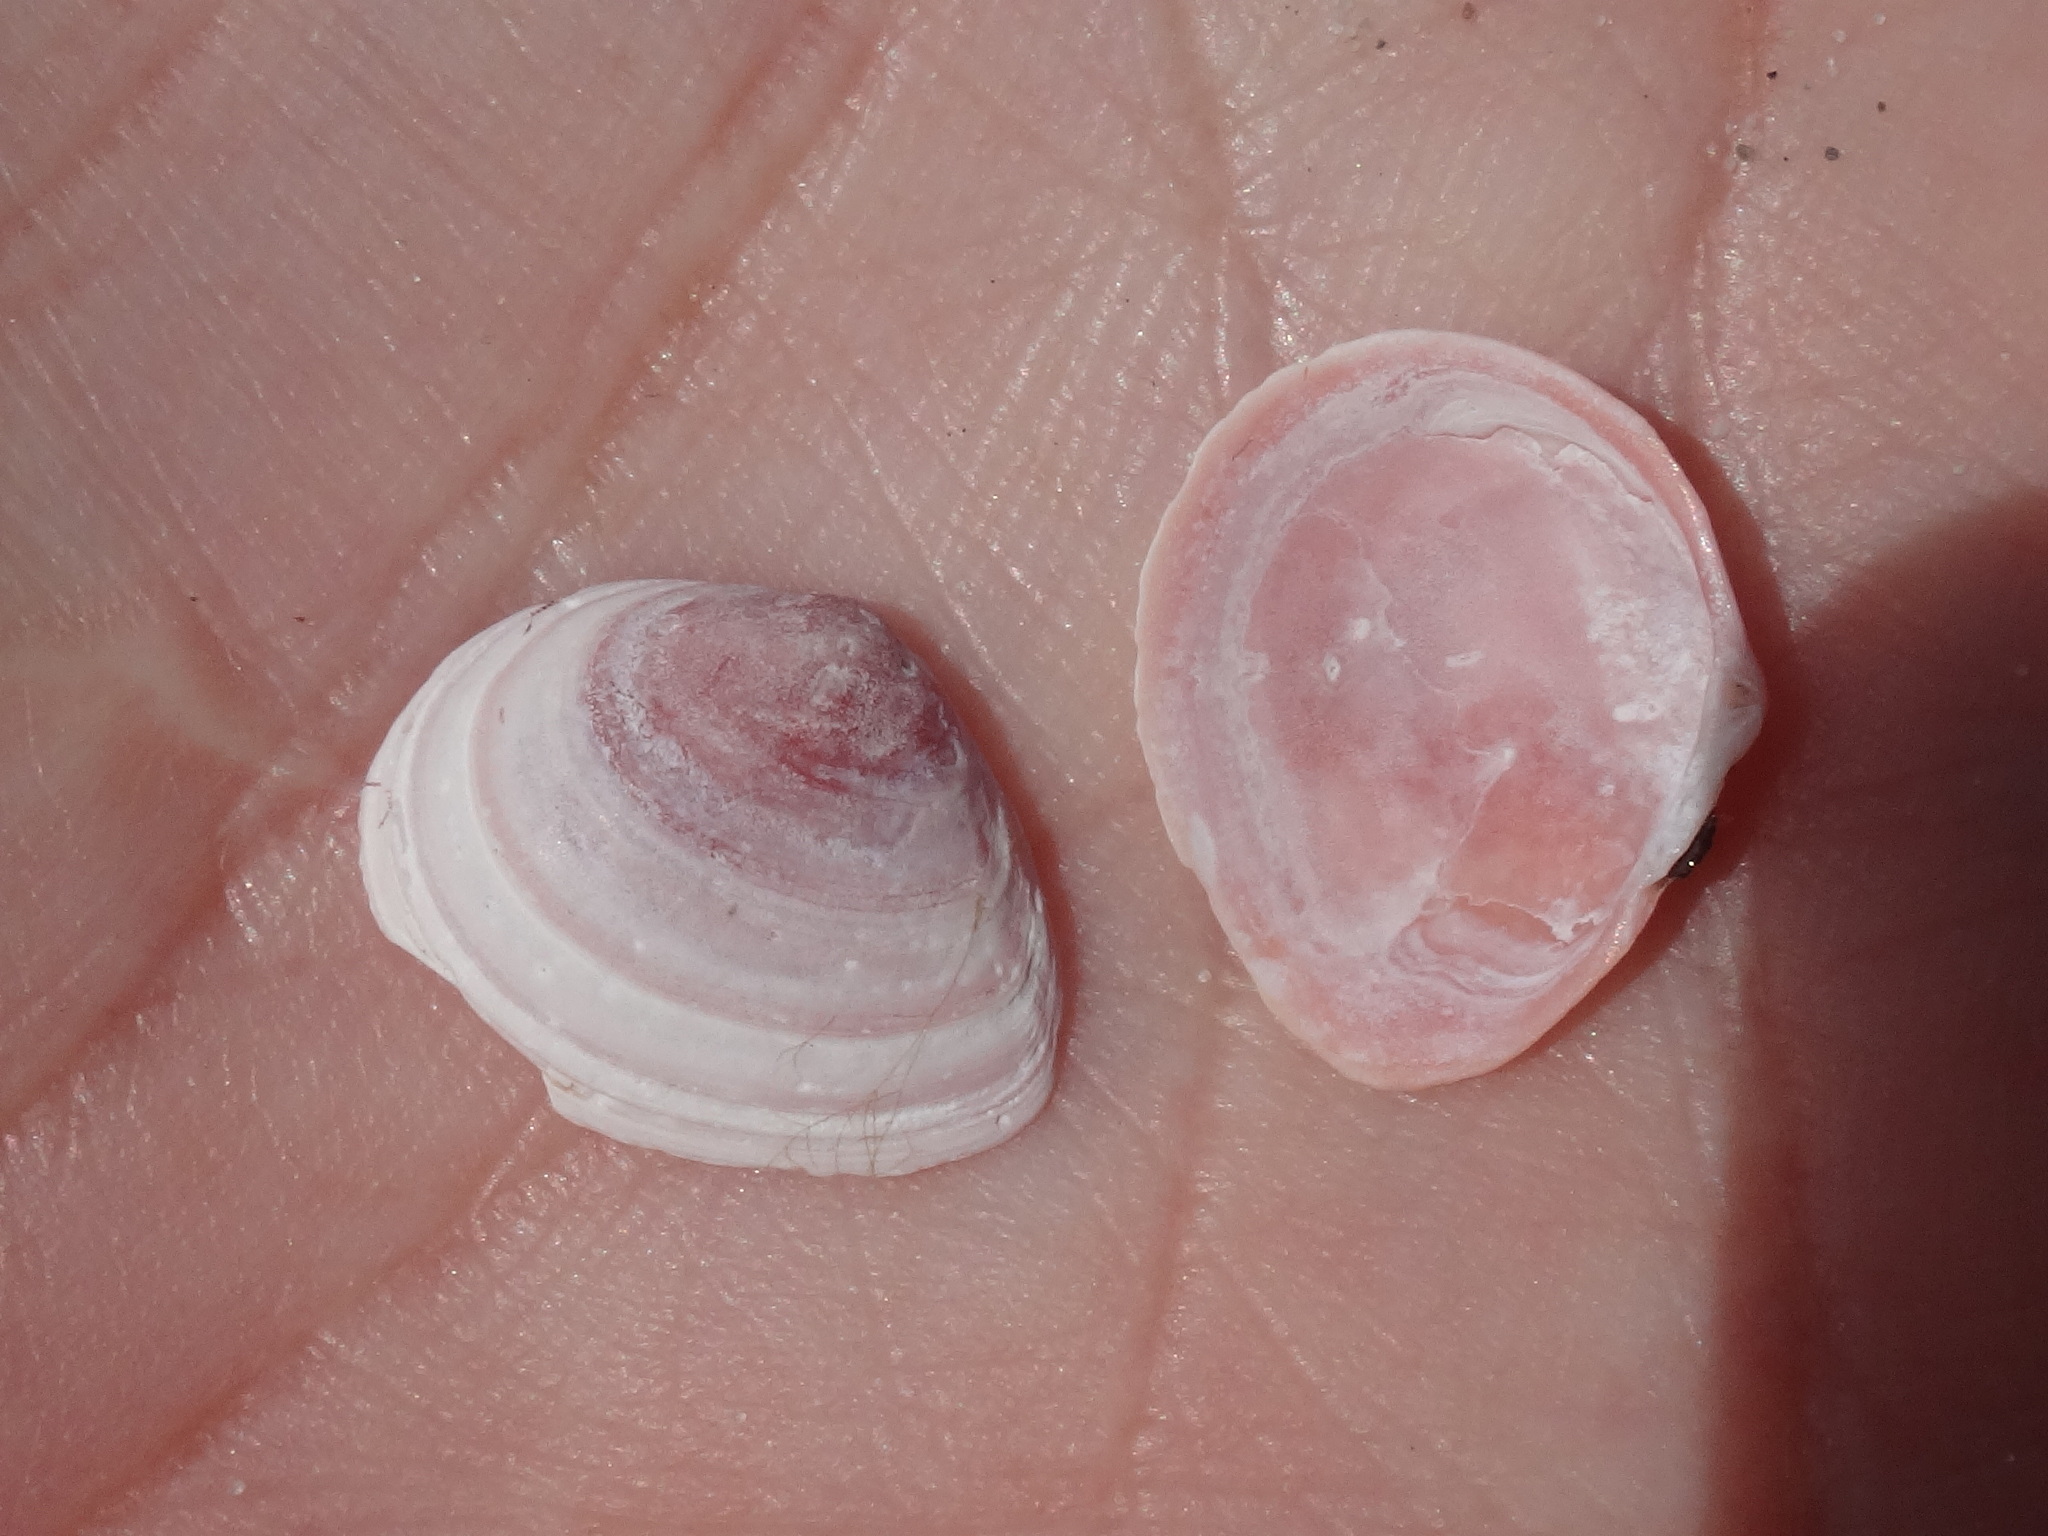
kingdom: Animalia
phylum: Mollusca
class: Bivalvia
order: Cardiida
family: Tellinidae
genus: Macoma
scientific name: Macoma balthica
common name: Baltic tellin
